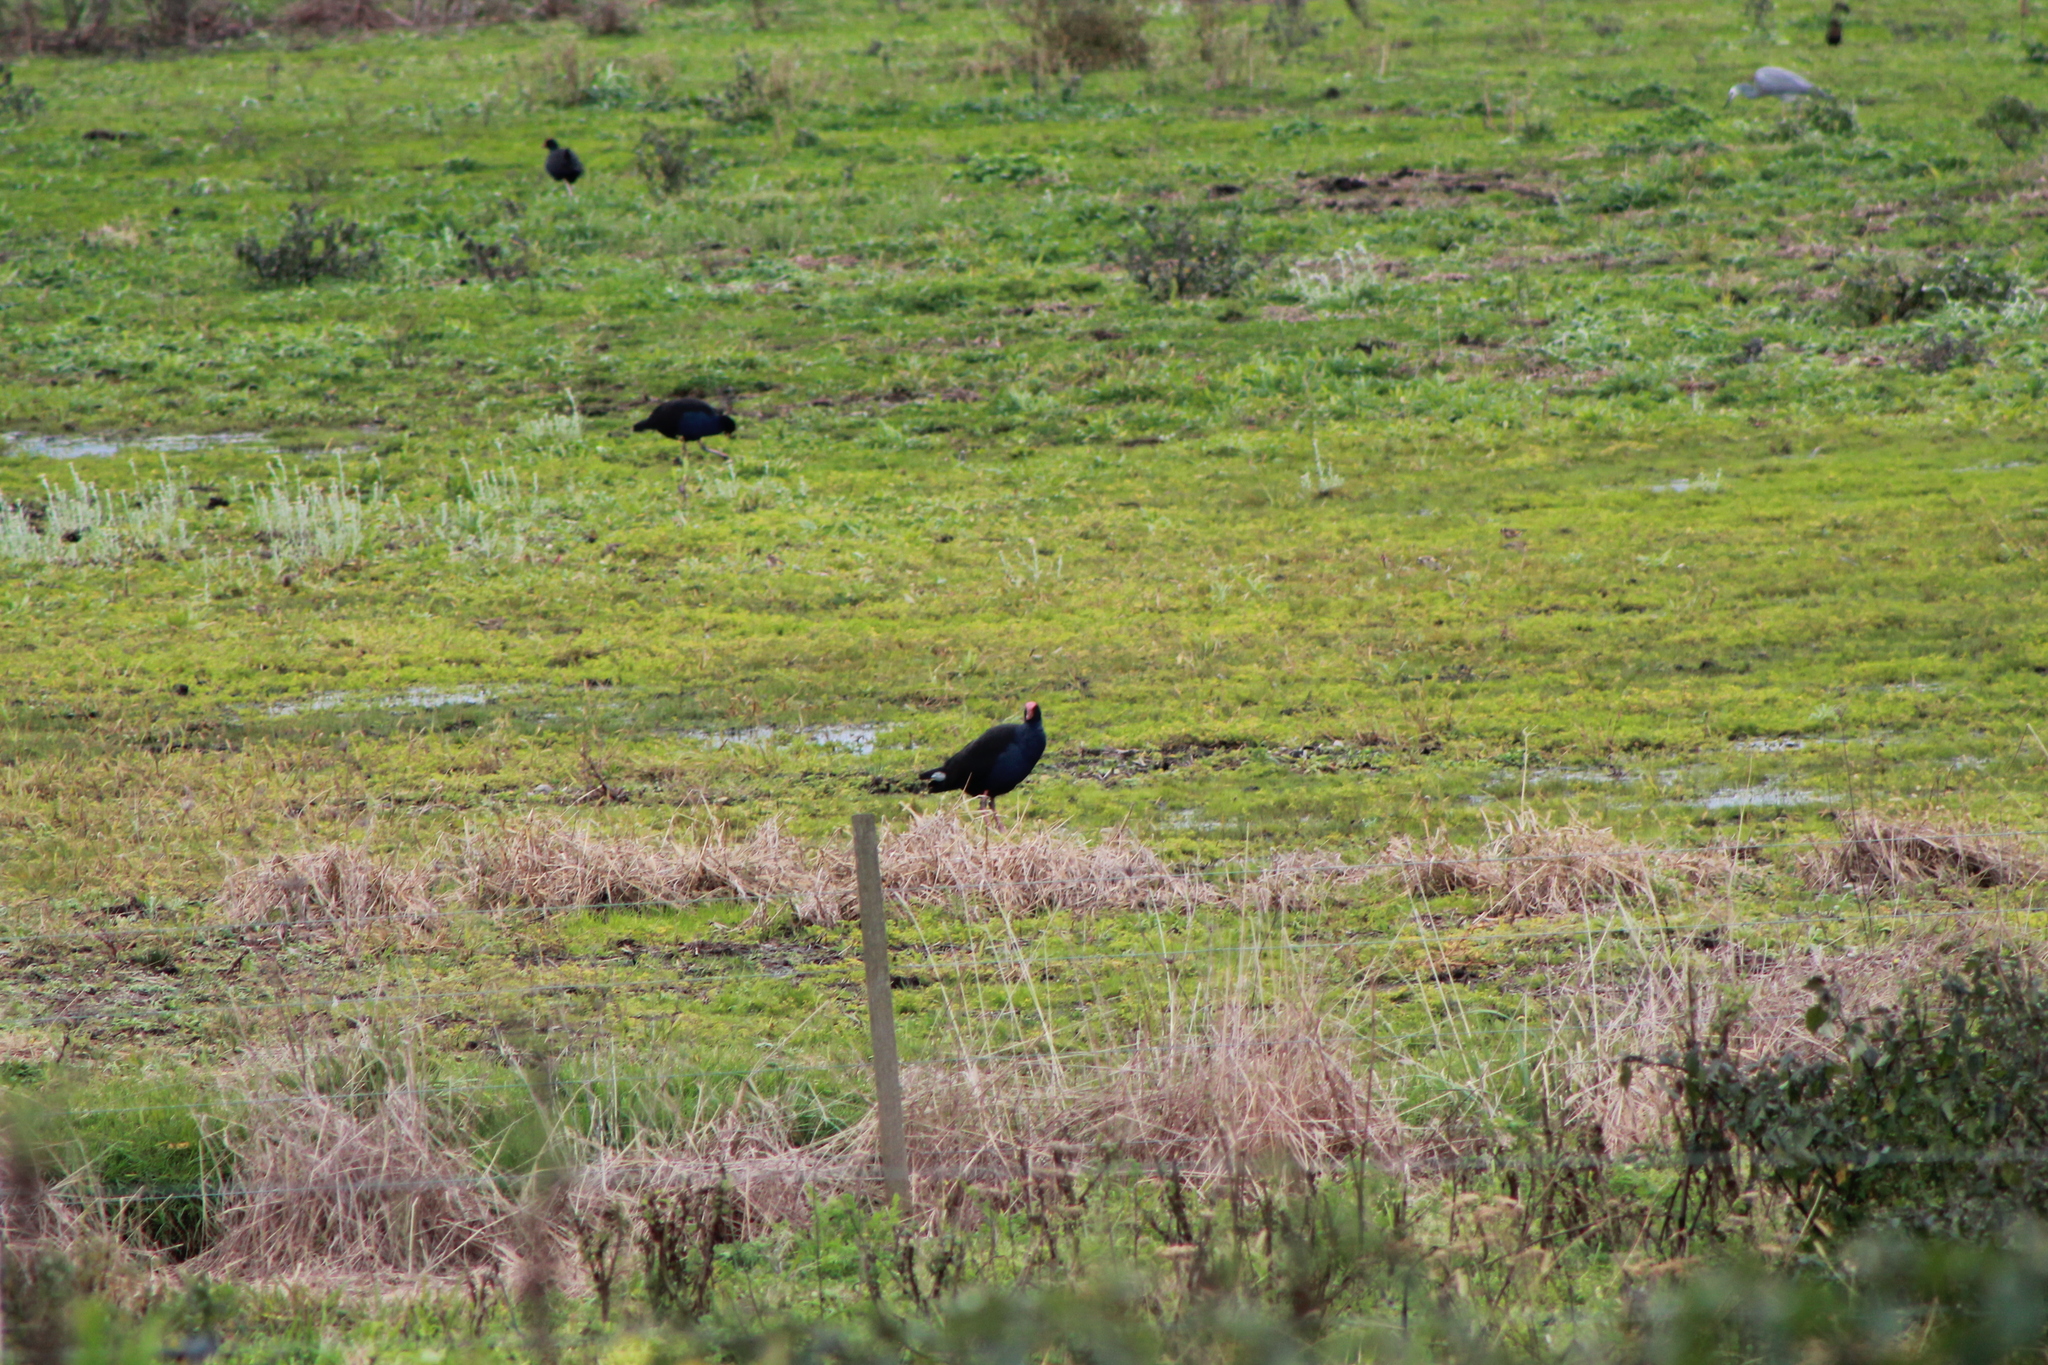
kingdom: Animalia
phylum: Chordata
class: Aves
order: Gruiformes
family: Rallidae
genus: Porphyrio
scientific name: Porphyrio melanotus
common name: Australasian swamphen
